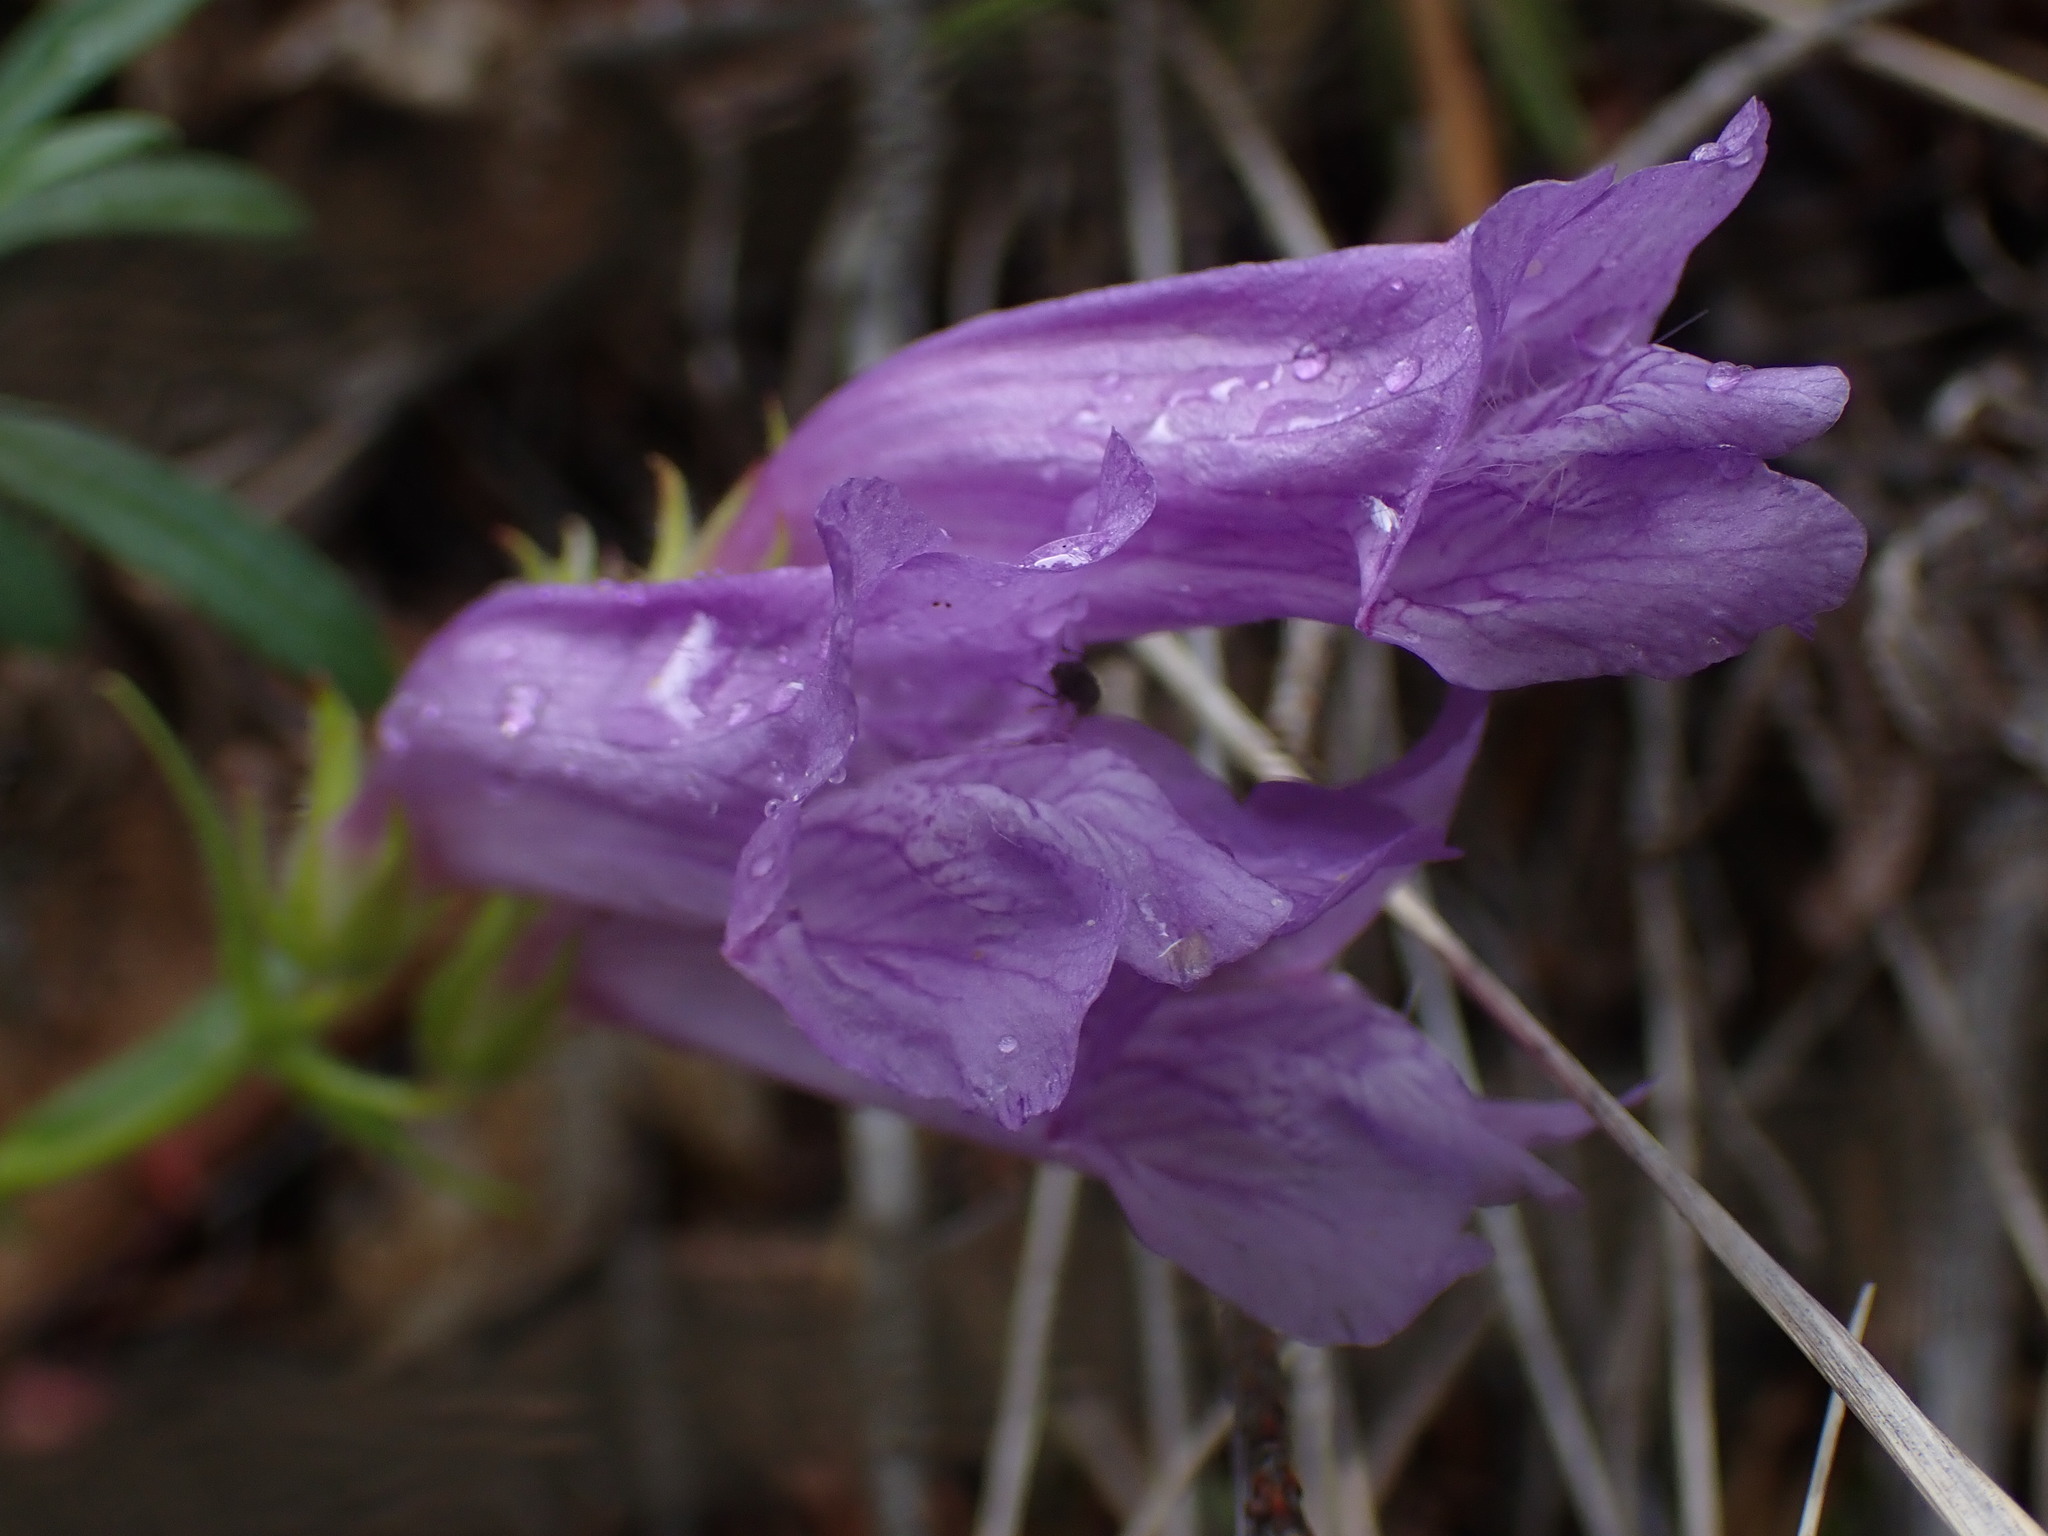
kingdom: Plantae
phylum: Tracheophyta
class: Magnoliopsida
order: Lamiales
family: Plantaginaceae
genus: Penstemon
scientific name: Penstemon fruticosus
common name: Bush penstemon
